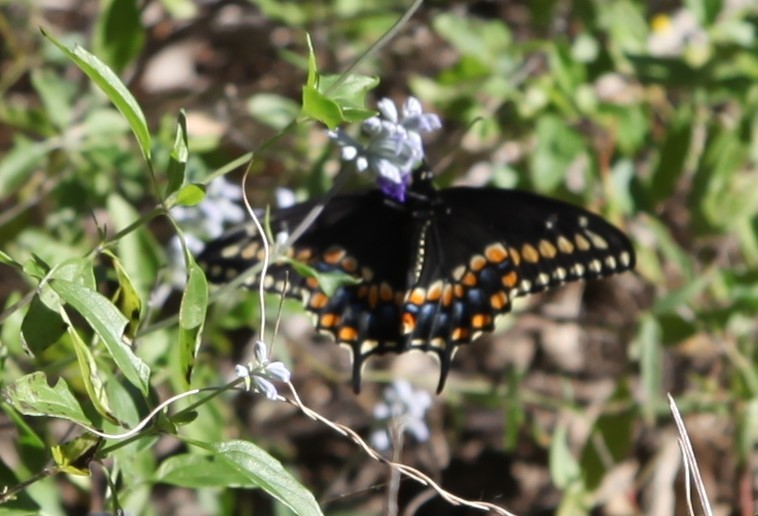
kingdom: Animalia
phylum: Arthropoda
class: Insecta
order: Lepidoptera
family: Papilionidae
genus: Papilio
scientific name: Papilio polyxenes
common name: Black swallowtail
